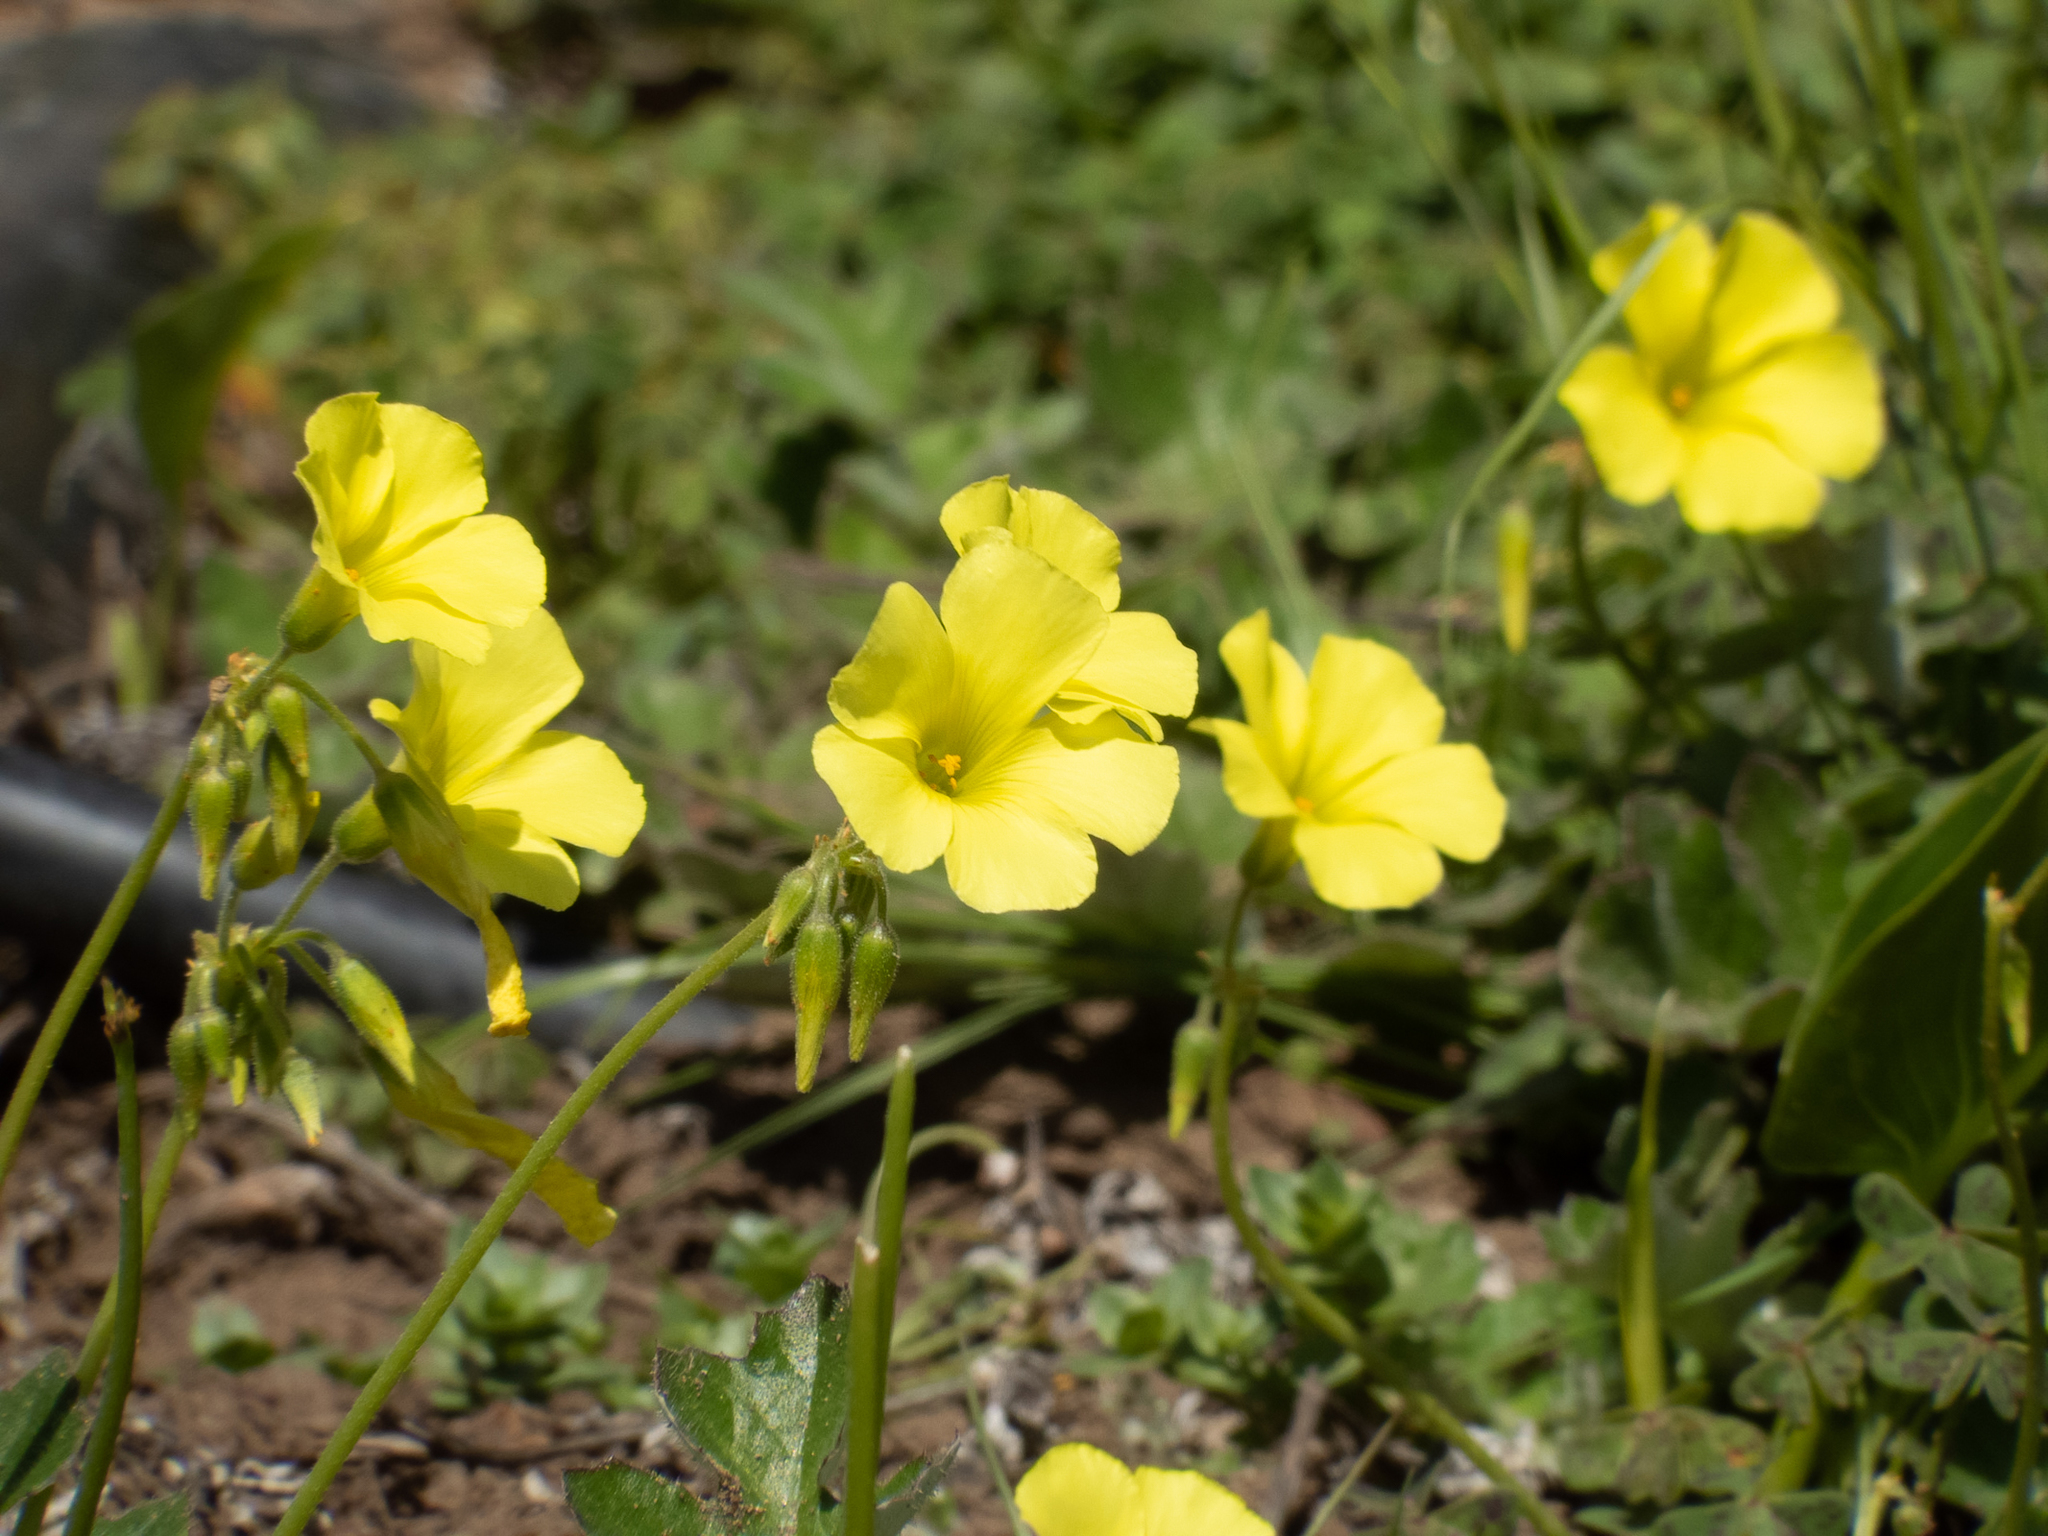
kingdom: Plantae
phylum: Tracheophyta
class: Magnoliopsida
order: Oxalidales
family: Oxalidaceae
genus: Oxalis
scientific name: Oxalis pes-caprae
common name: Bermuda-buttercup
